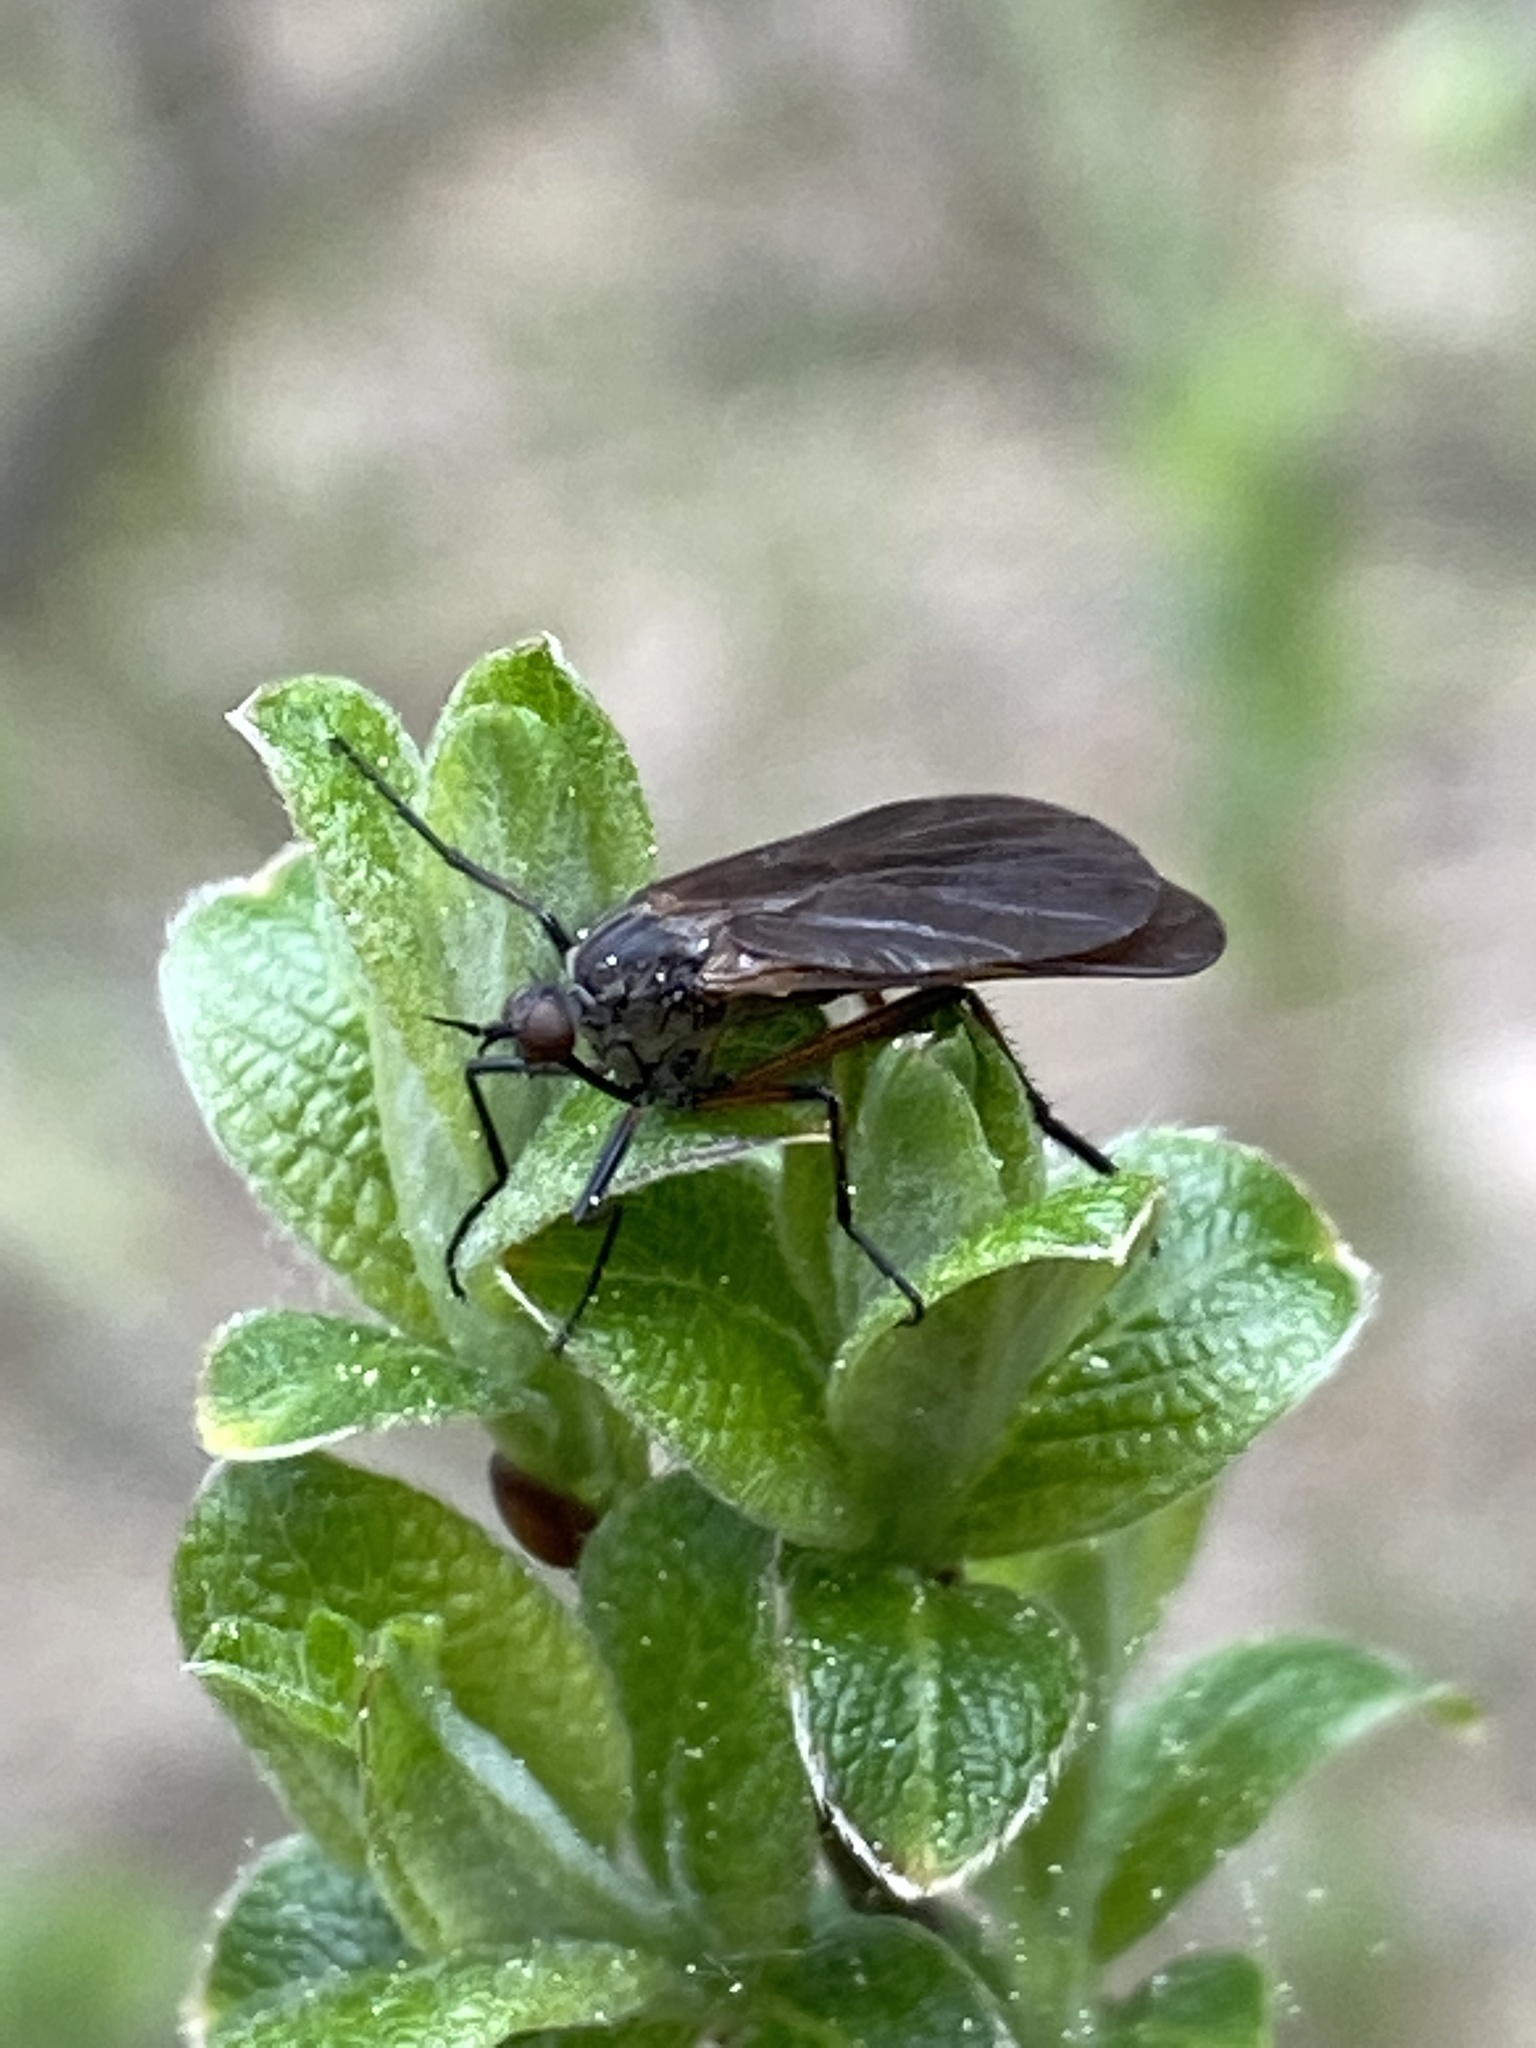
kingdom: Animalia
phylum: Arthropoda
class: Insecta
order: Diptera
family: Empididae
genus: Empis
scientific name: Empis borealis
